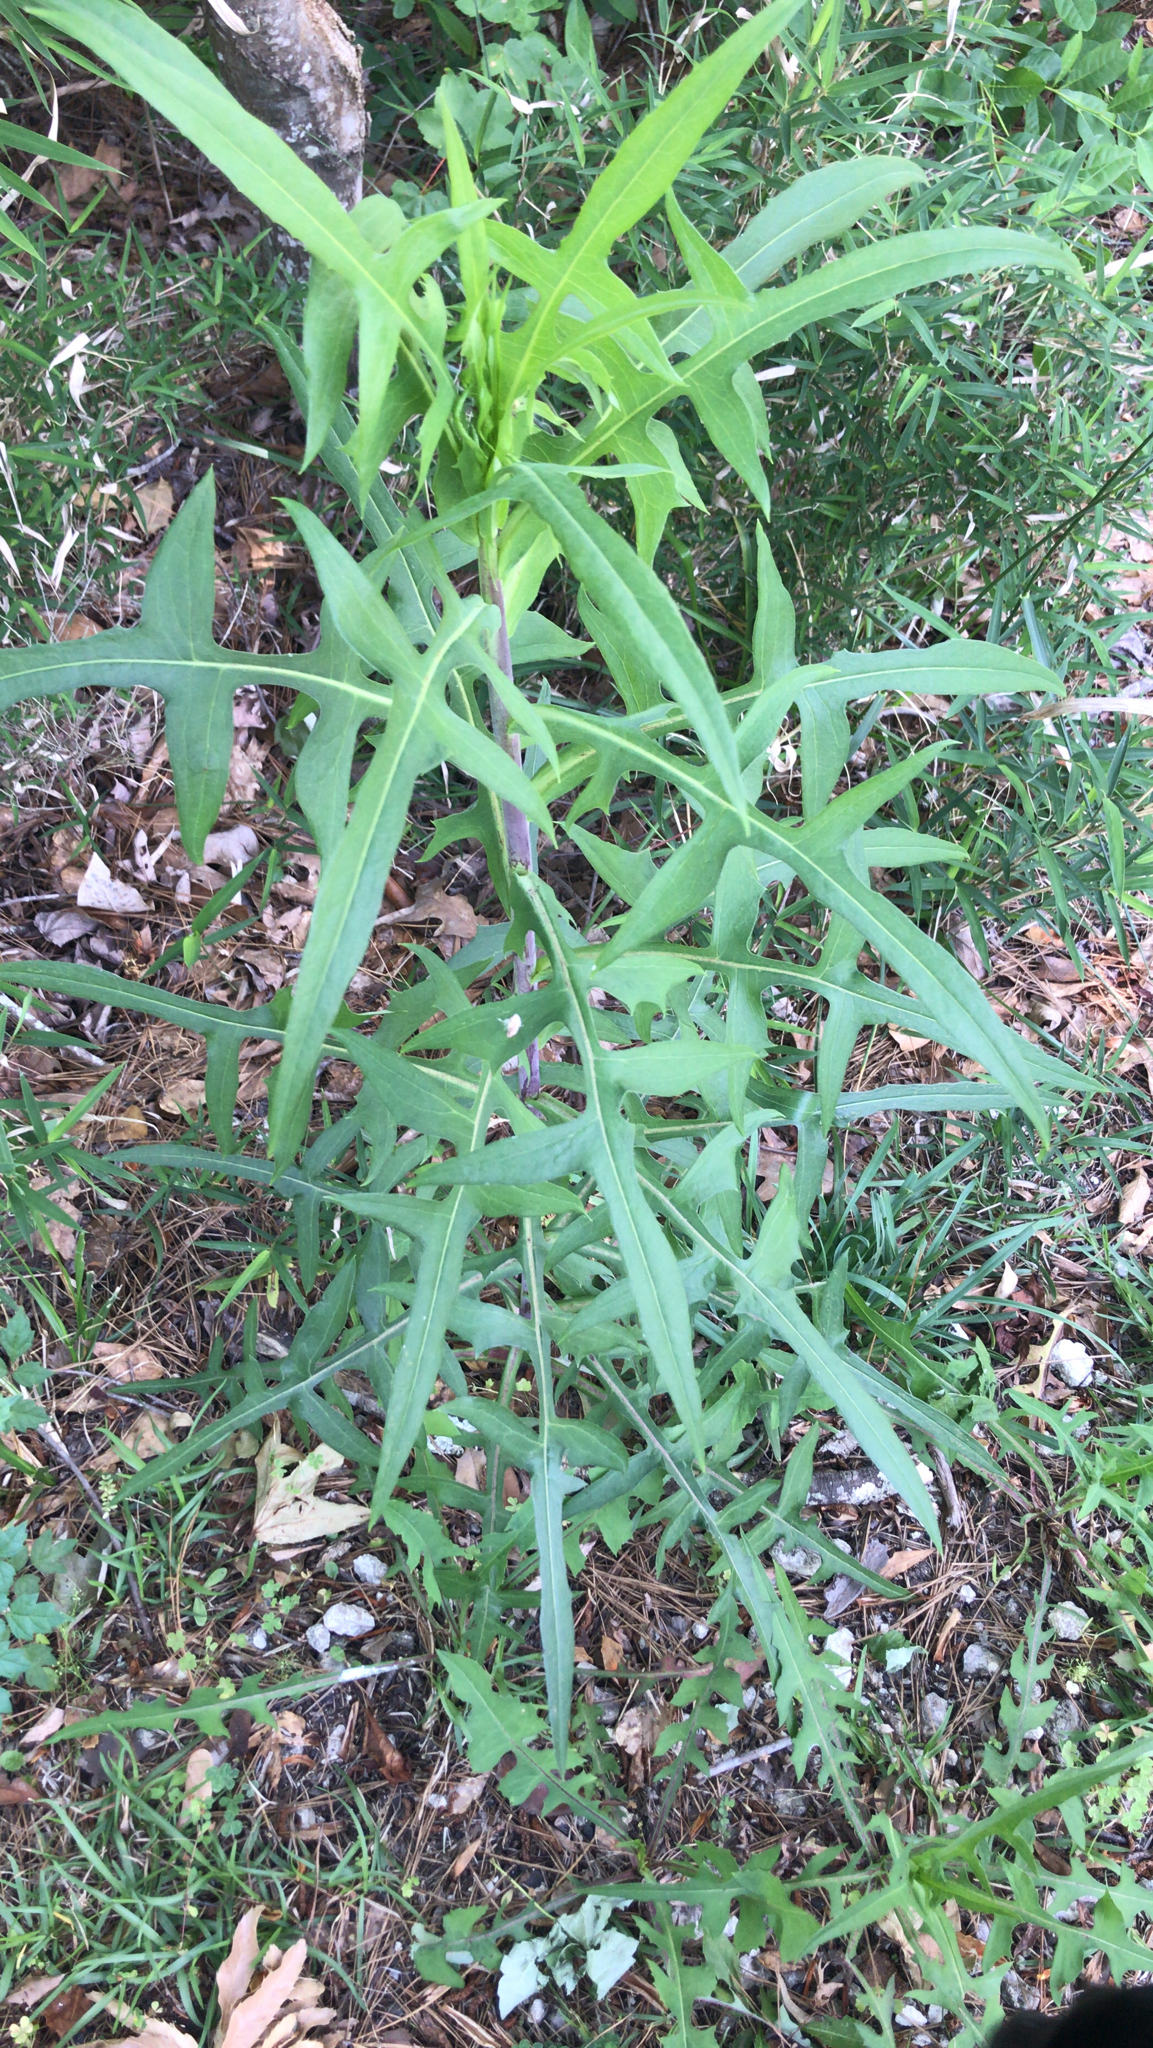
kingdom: Plantae
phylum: Tracheophyta
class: Magnoliopsida
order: Asterales
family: Asteraceae
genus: Lactuca
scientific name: Lactuca canadensis
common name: Canada lettuce
